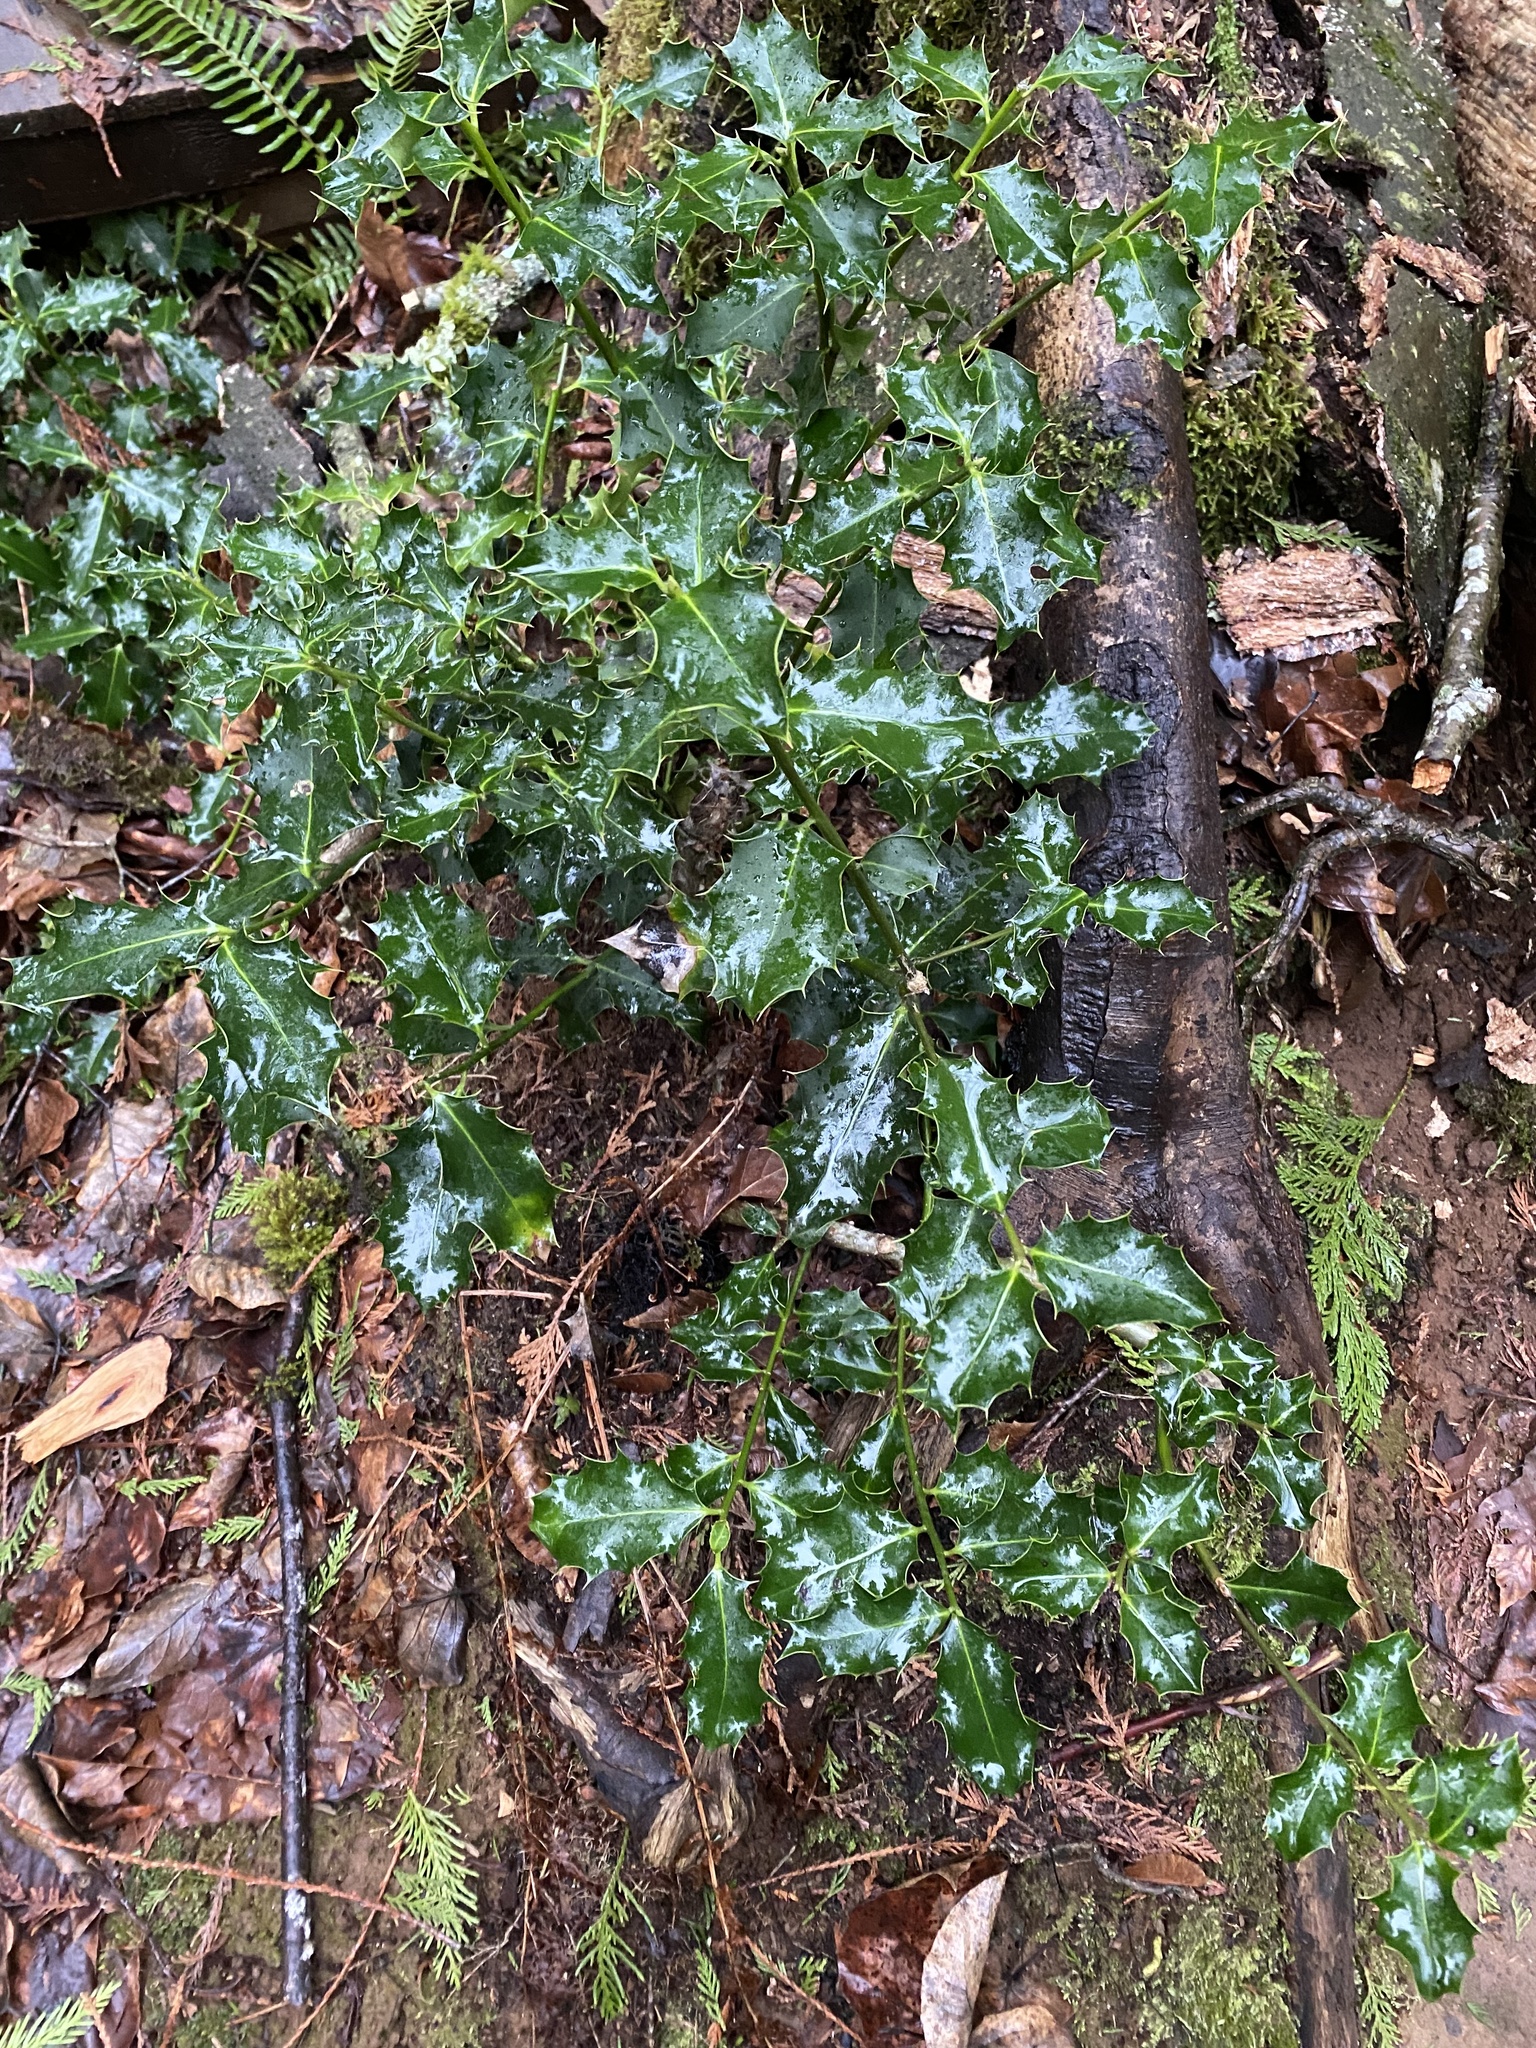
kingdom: Plantae
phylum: Tracheophyta
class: Magnoliopsida
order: Aquifoliales
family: Aquifoliaceae
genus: Ilex
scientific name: Ilex aquifolium
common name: English holly
